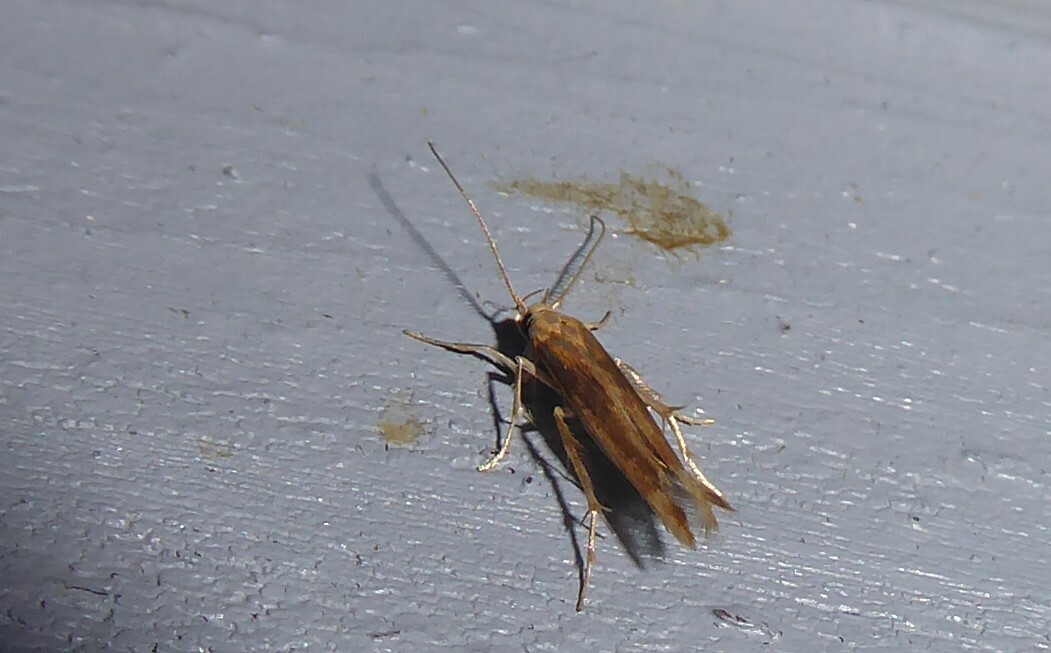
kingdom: Animalia
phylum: Arthropoda
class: Insecta
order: Lepidoptera
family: Stathmopodidae
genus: Stathmopoda
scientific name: Stathmopoda aposema
